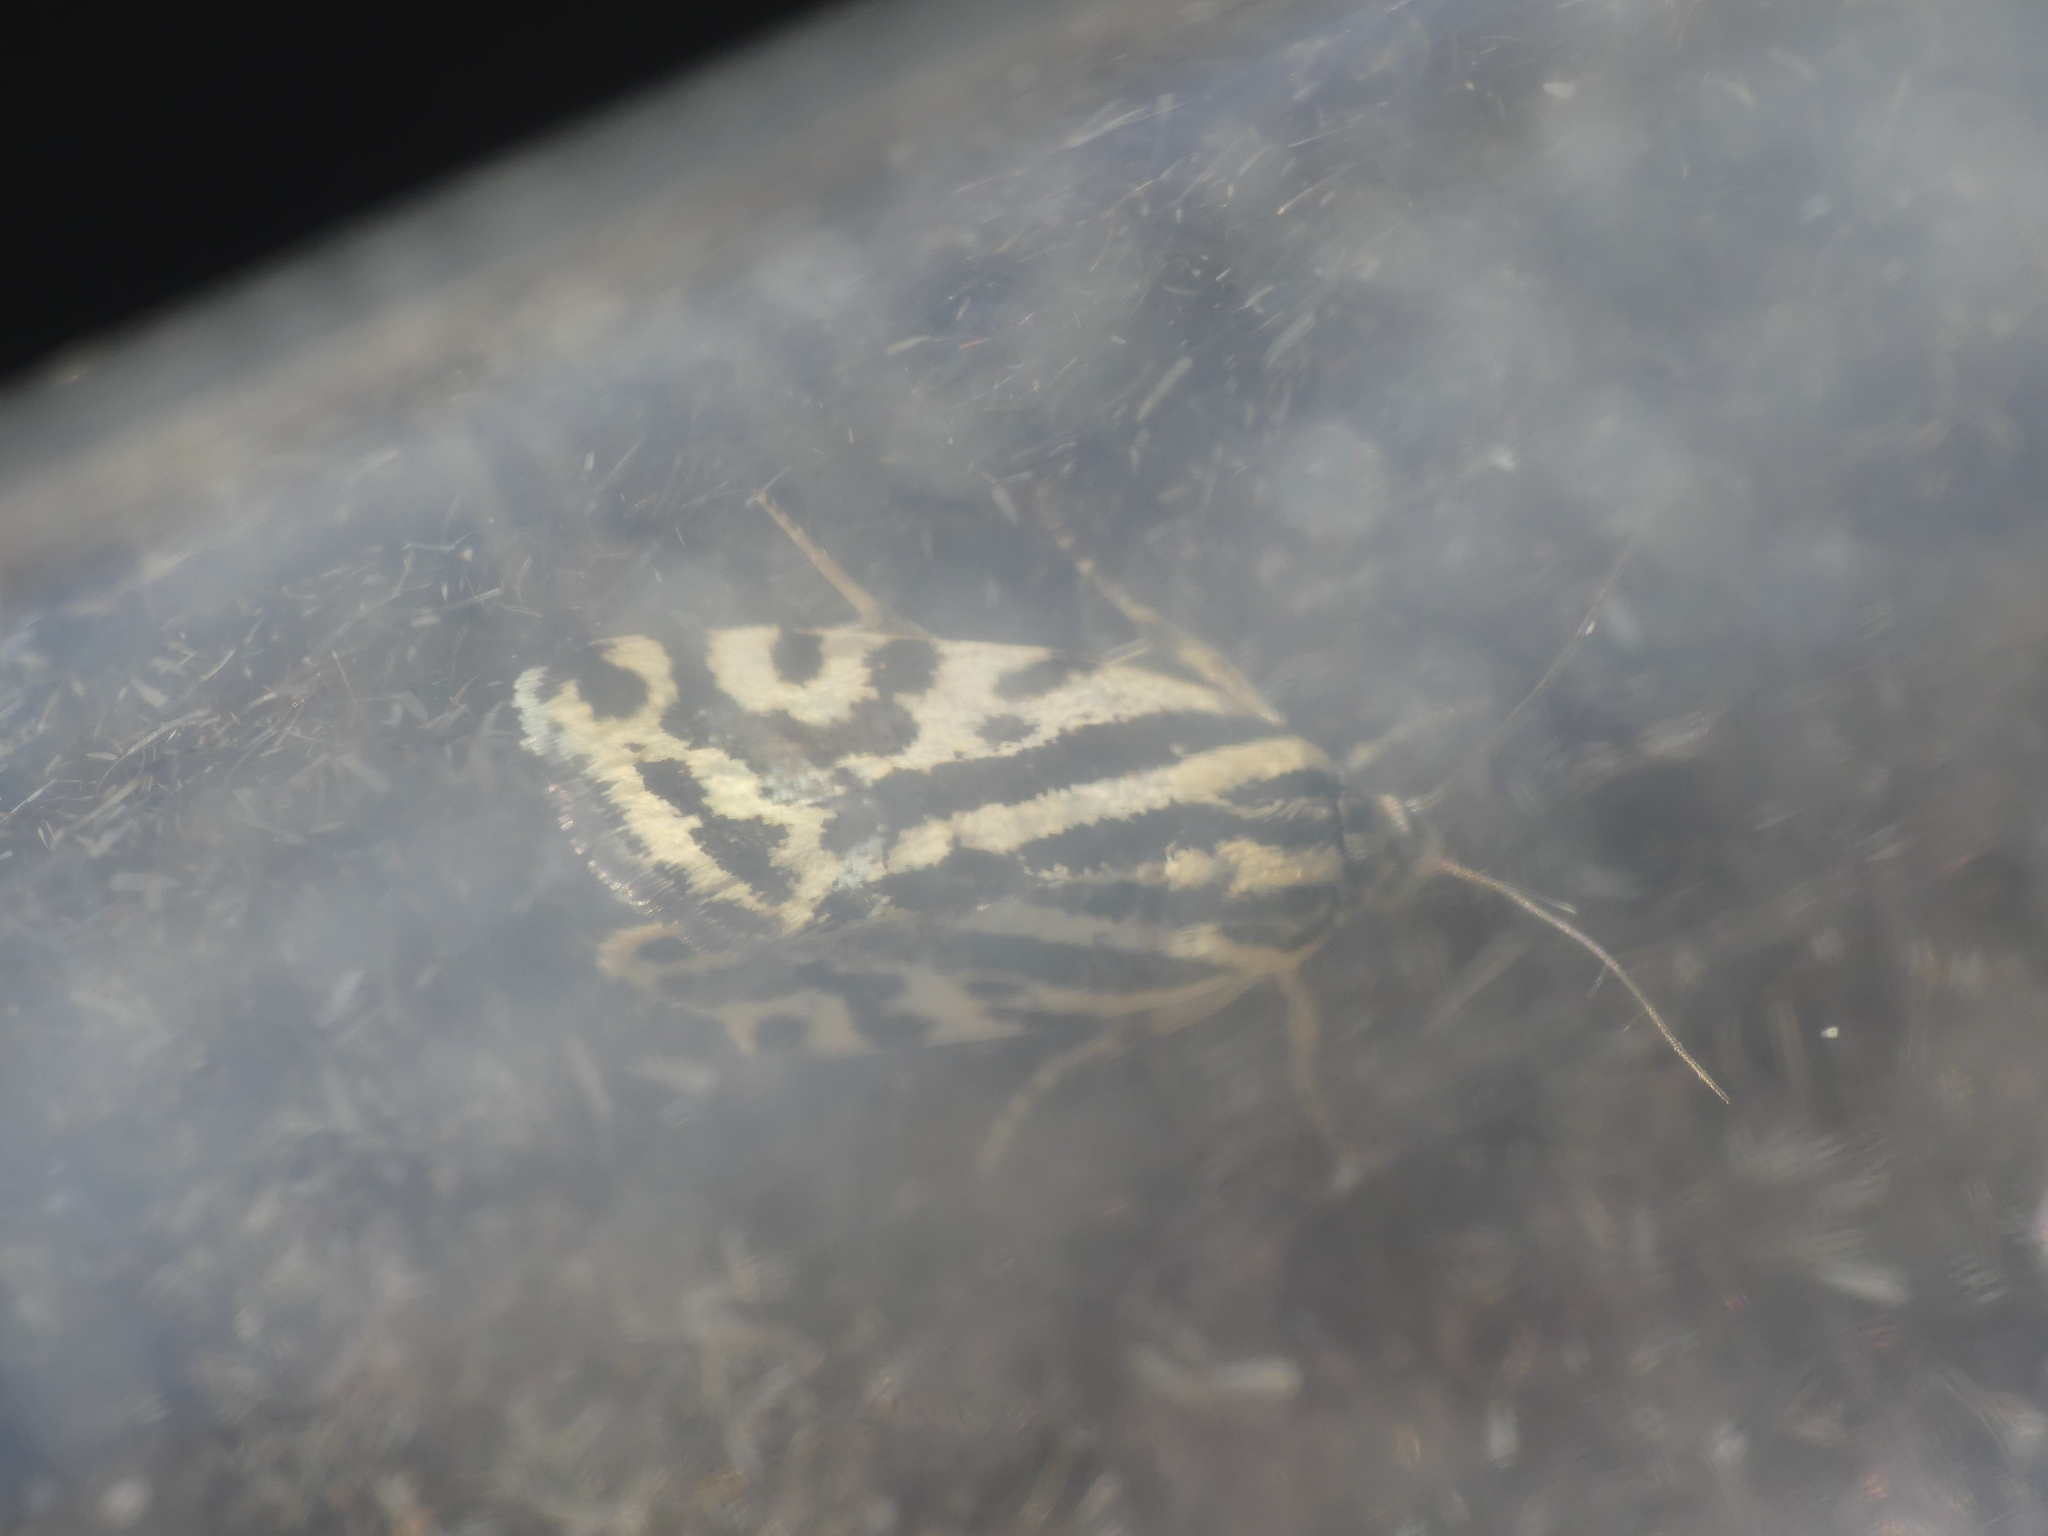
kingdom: Animalia
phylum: Arthropoda
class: Insecta
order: Lepidoptera
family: Noctuidae
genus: Acontia
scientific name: Acontia trabealis
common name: Spotted sulphur
